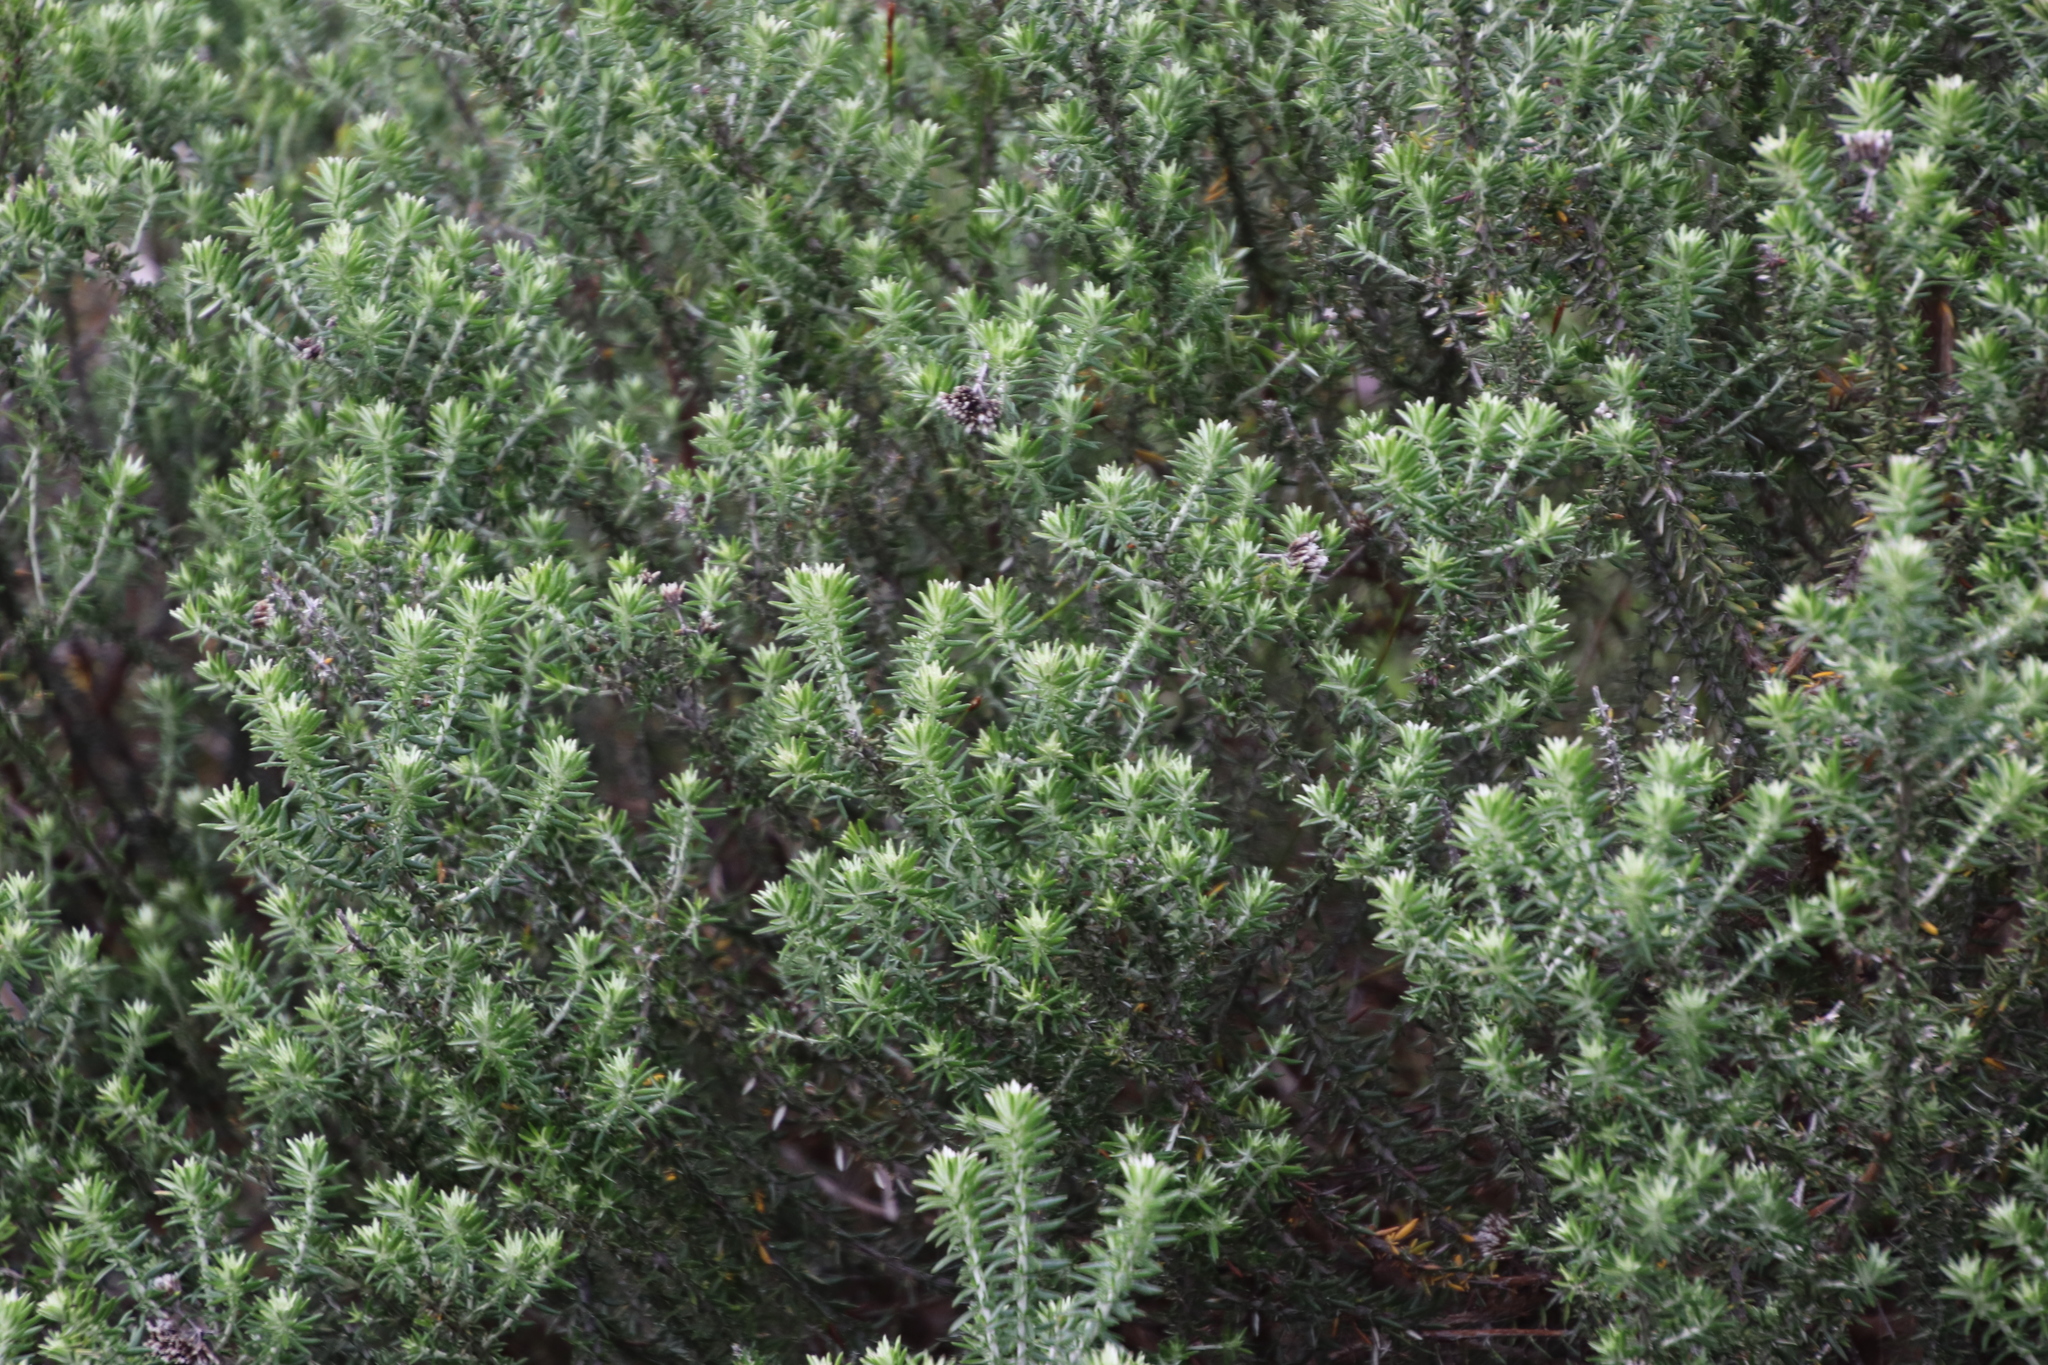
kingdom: Plantae
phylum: Tracheophyta
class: Magnoliopsida
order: Asterales
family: Asteraceae
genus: Metalasia
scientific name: Metalasia densa
